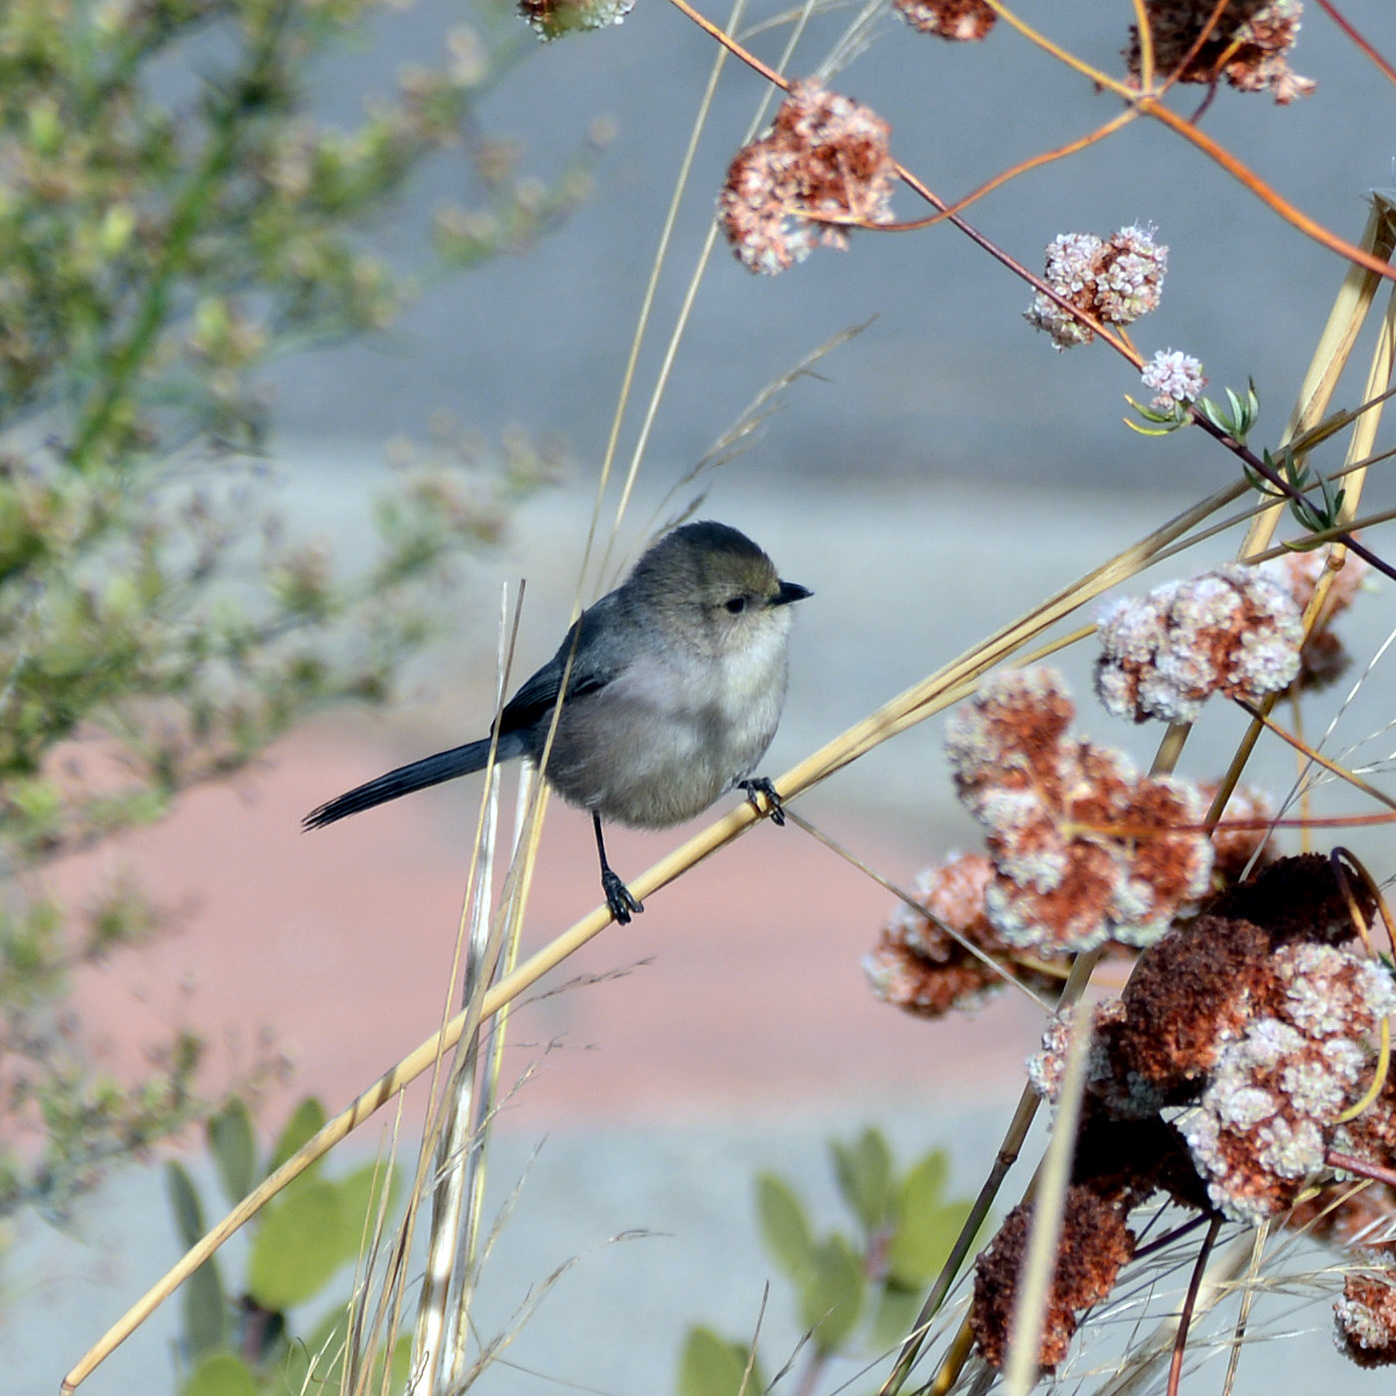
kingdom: Animalia
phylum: Chordata
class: Aves
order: Passeriformes
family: Aegithalidae
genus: Psaltriparus
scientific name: Psaltriparus minimus
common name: American bushtit
